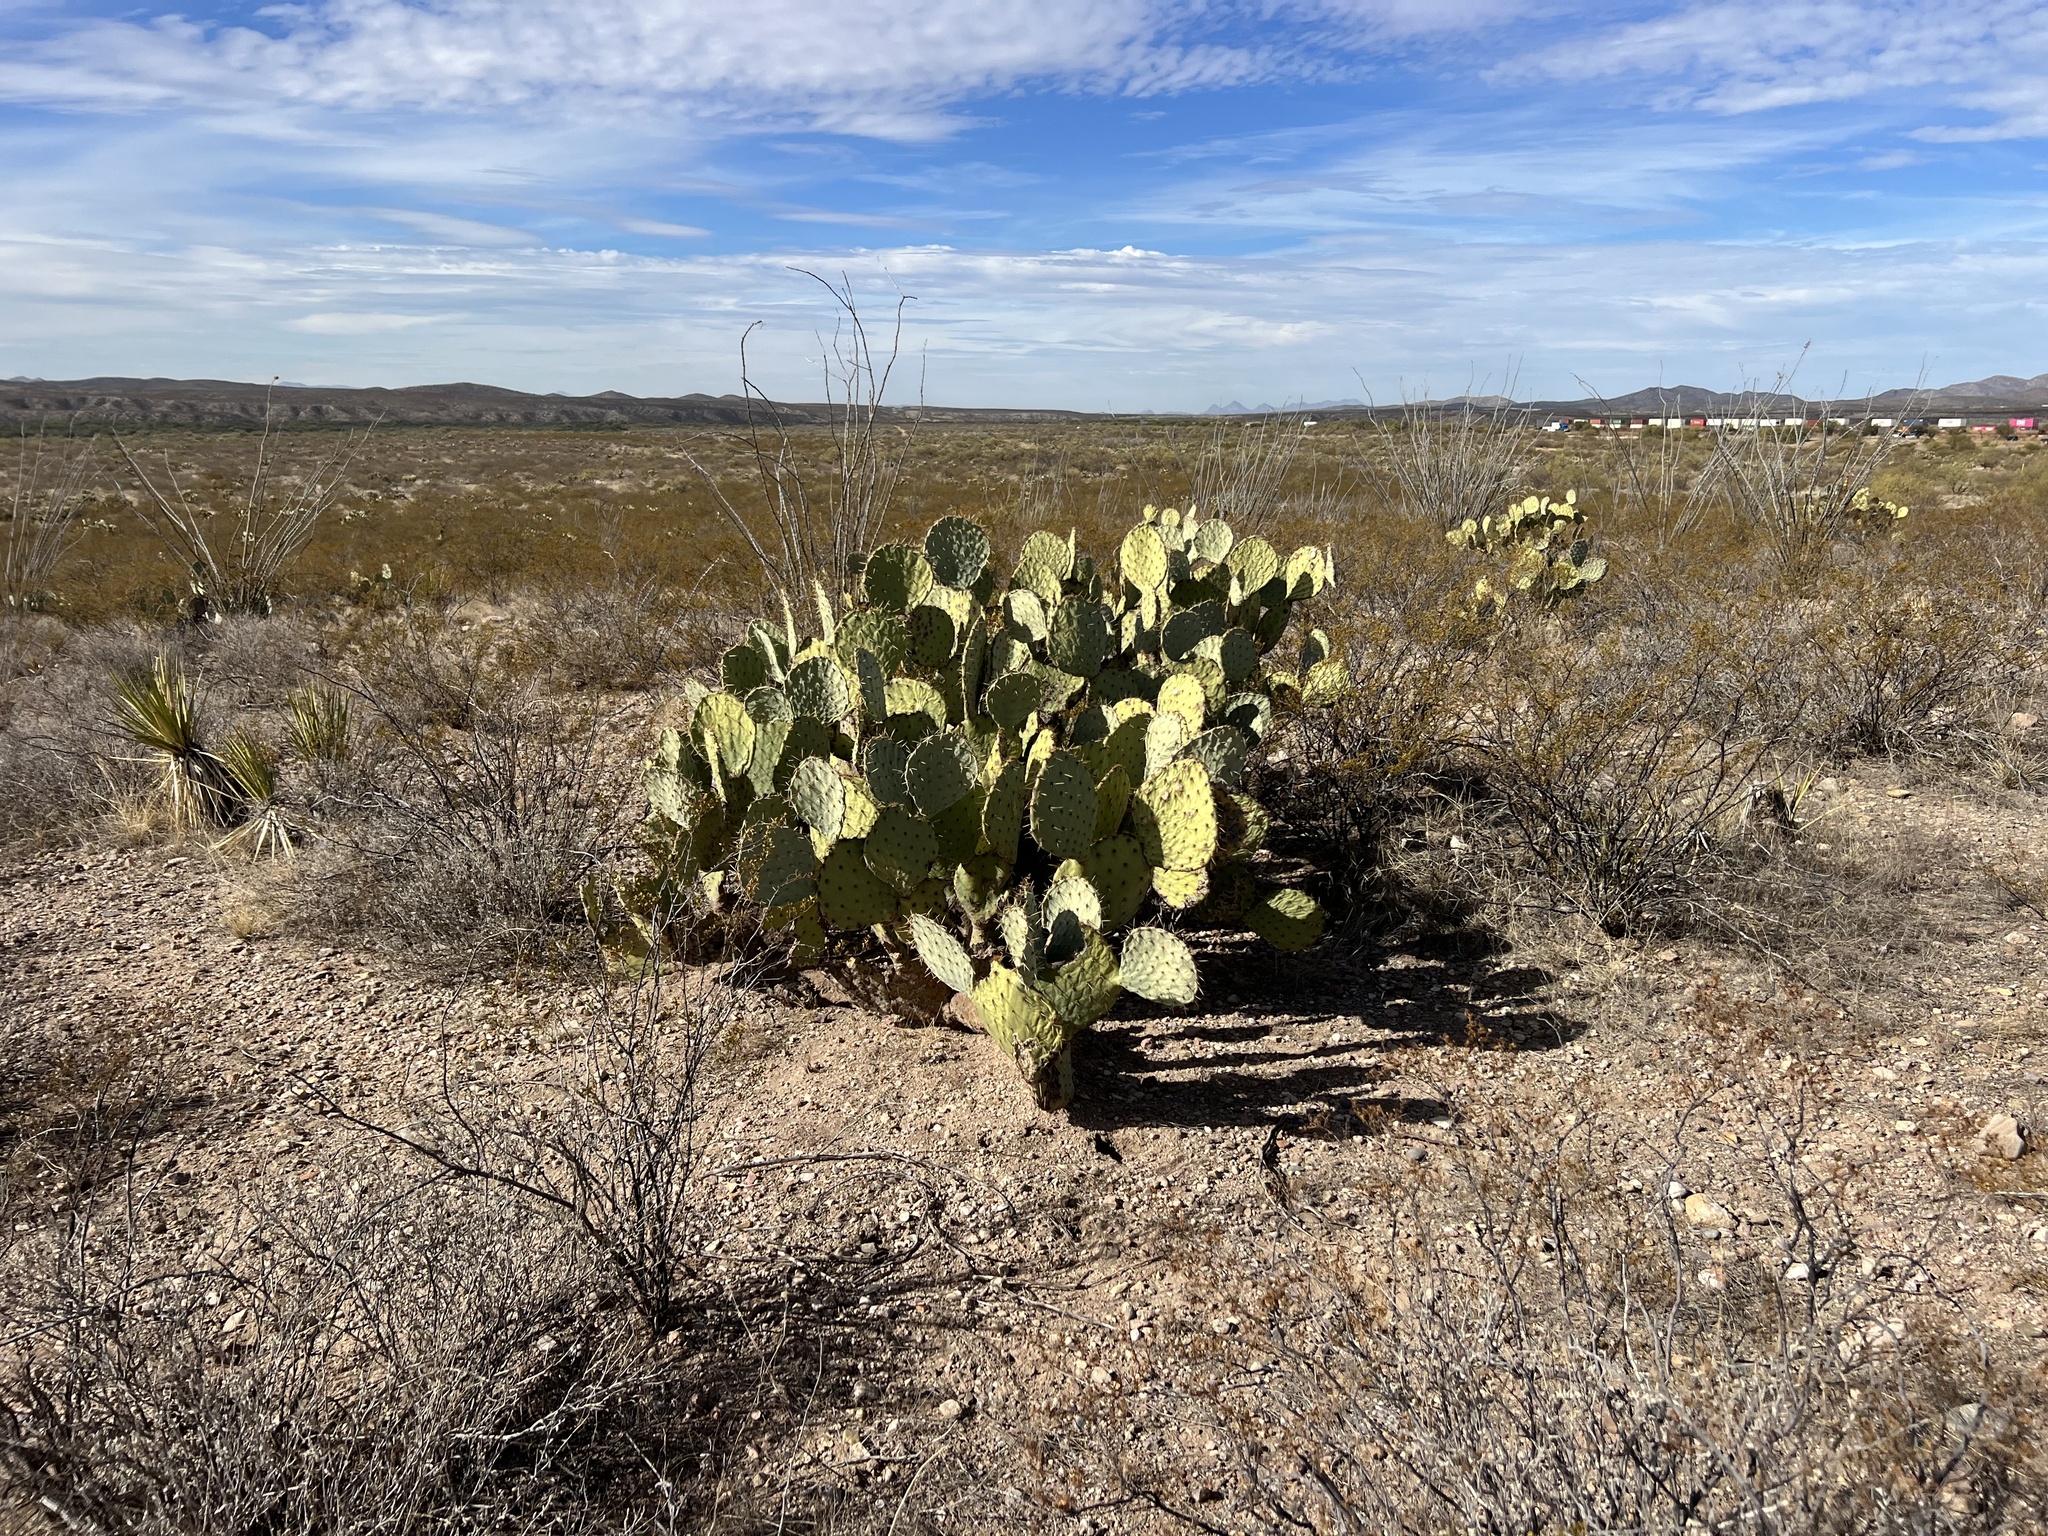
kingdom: Plantae
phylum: Tracheophyta
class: Magnoliopsida
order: Caryophyllales
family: Cactaceae
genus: Opuntia
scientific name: Opuntia engelmannii
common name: Cactus-apple
